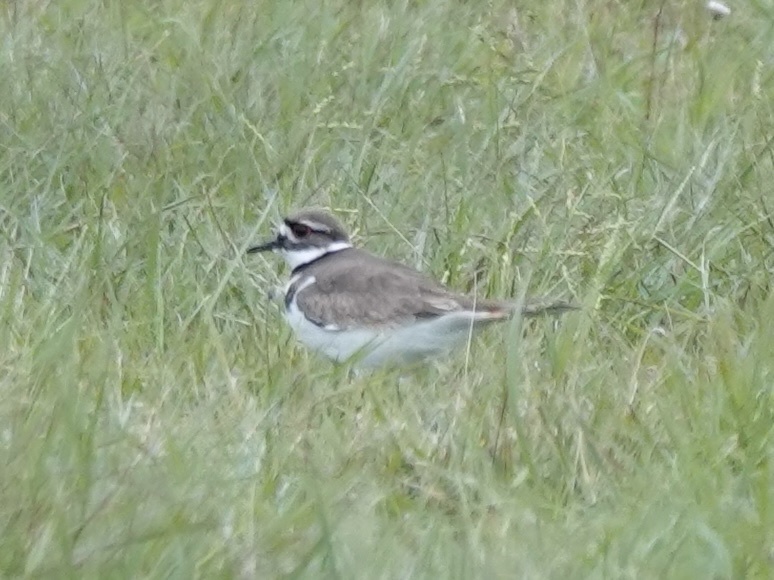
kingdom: Animalia
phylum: Chordata
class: Aves
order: Charadriiformes
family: Charadriidae
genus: Charadrius
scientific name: Charadrius vociferus
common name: Killdeer
